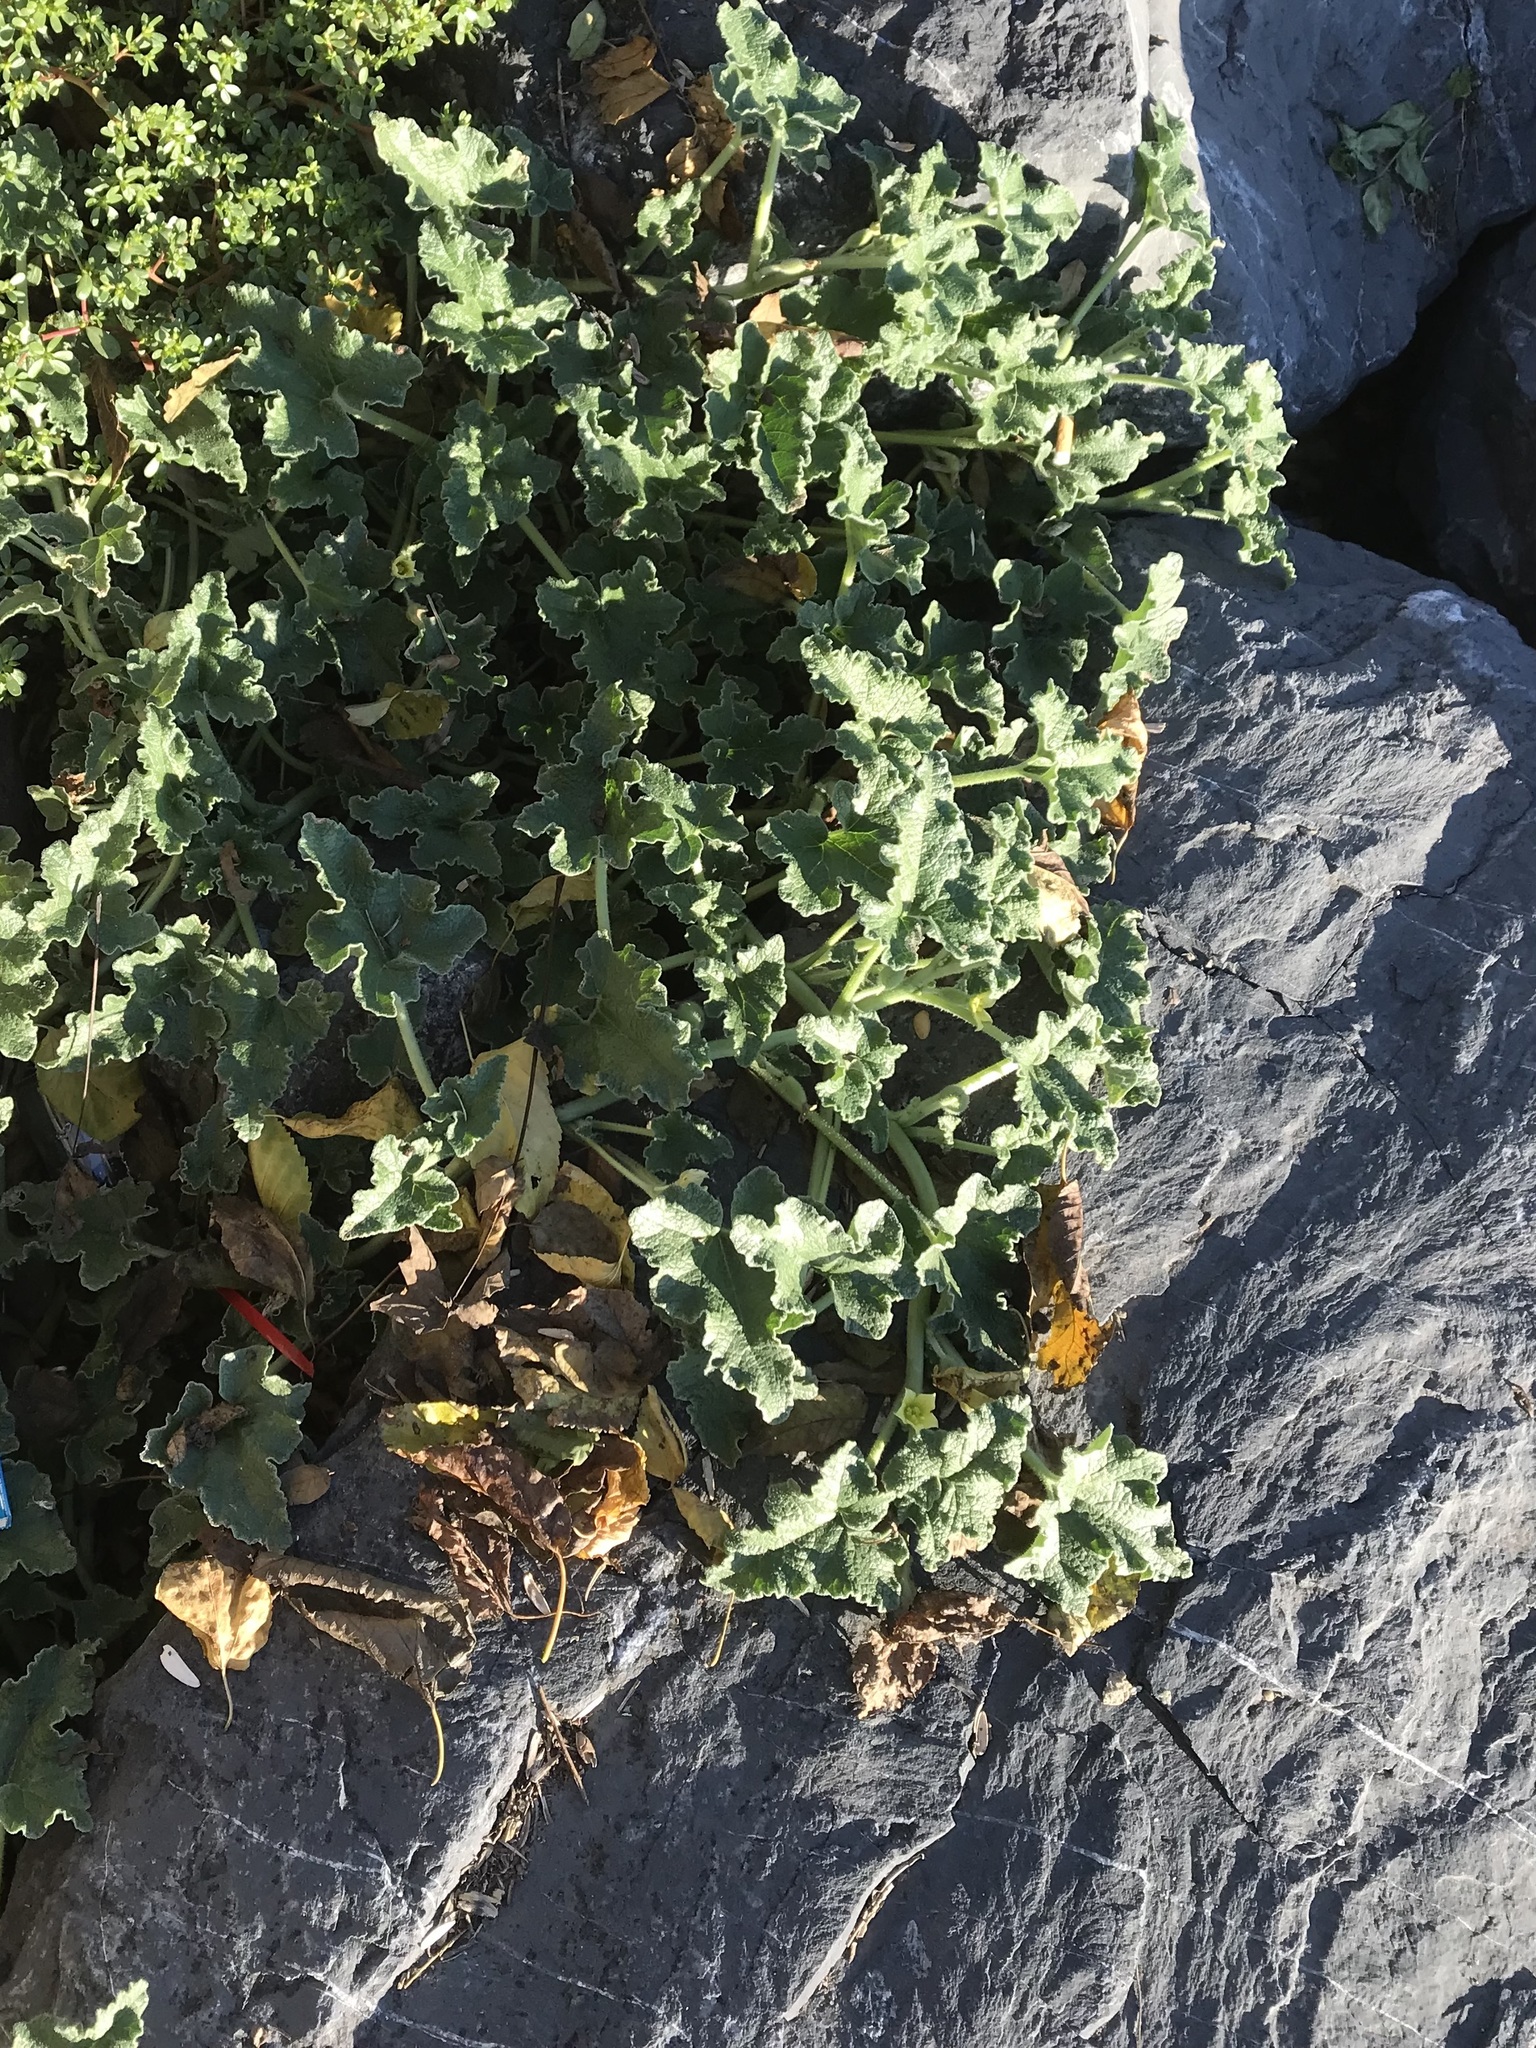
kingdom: Plantae
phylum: Tracheophyta
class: Magnoliopsida
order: Cucurbitales
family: Cucurbitaceae
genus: Ecballium
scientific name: Ecballium elaterium
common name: Squirting cucumber
